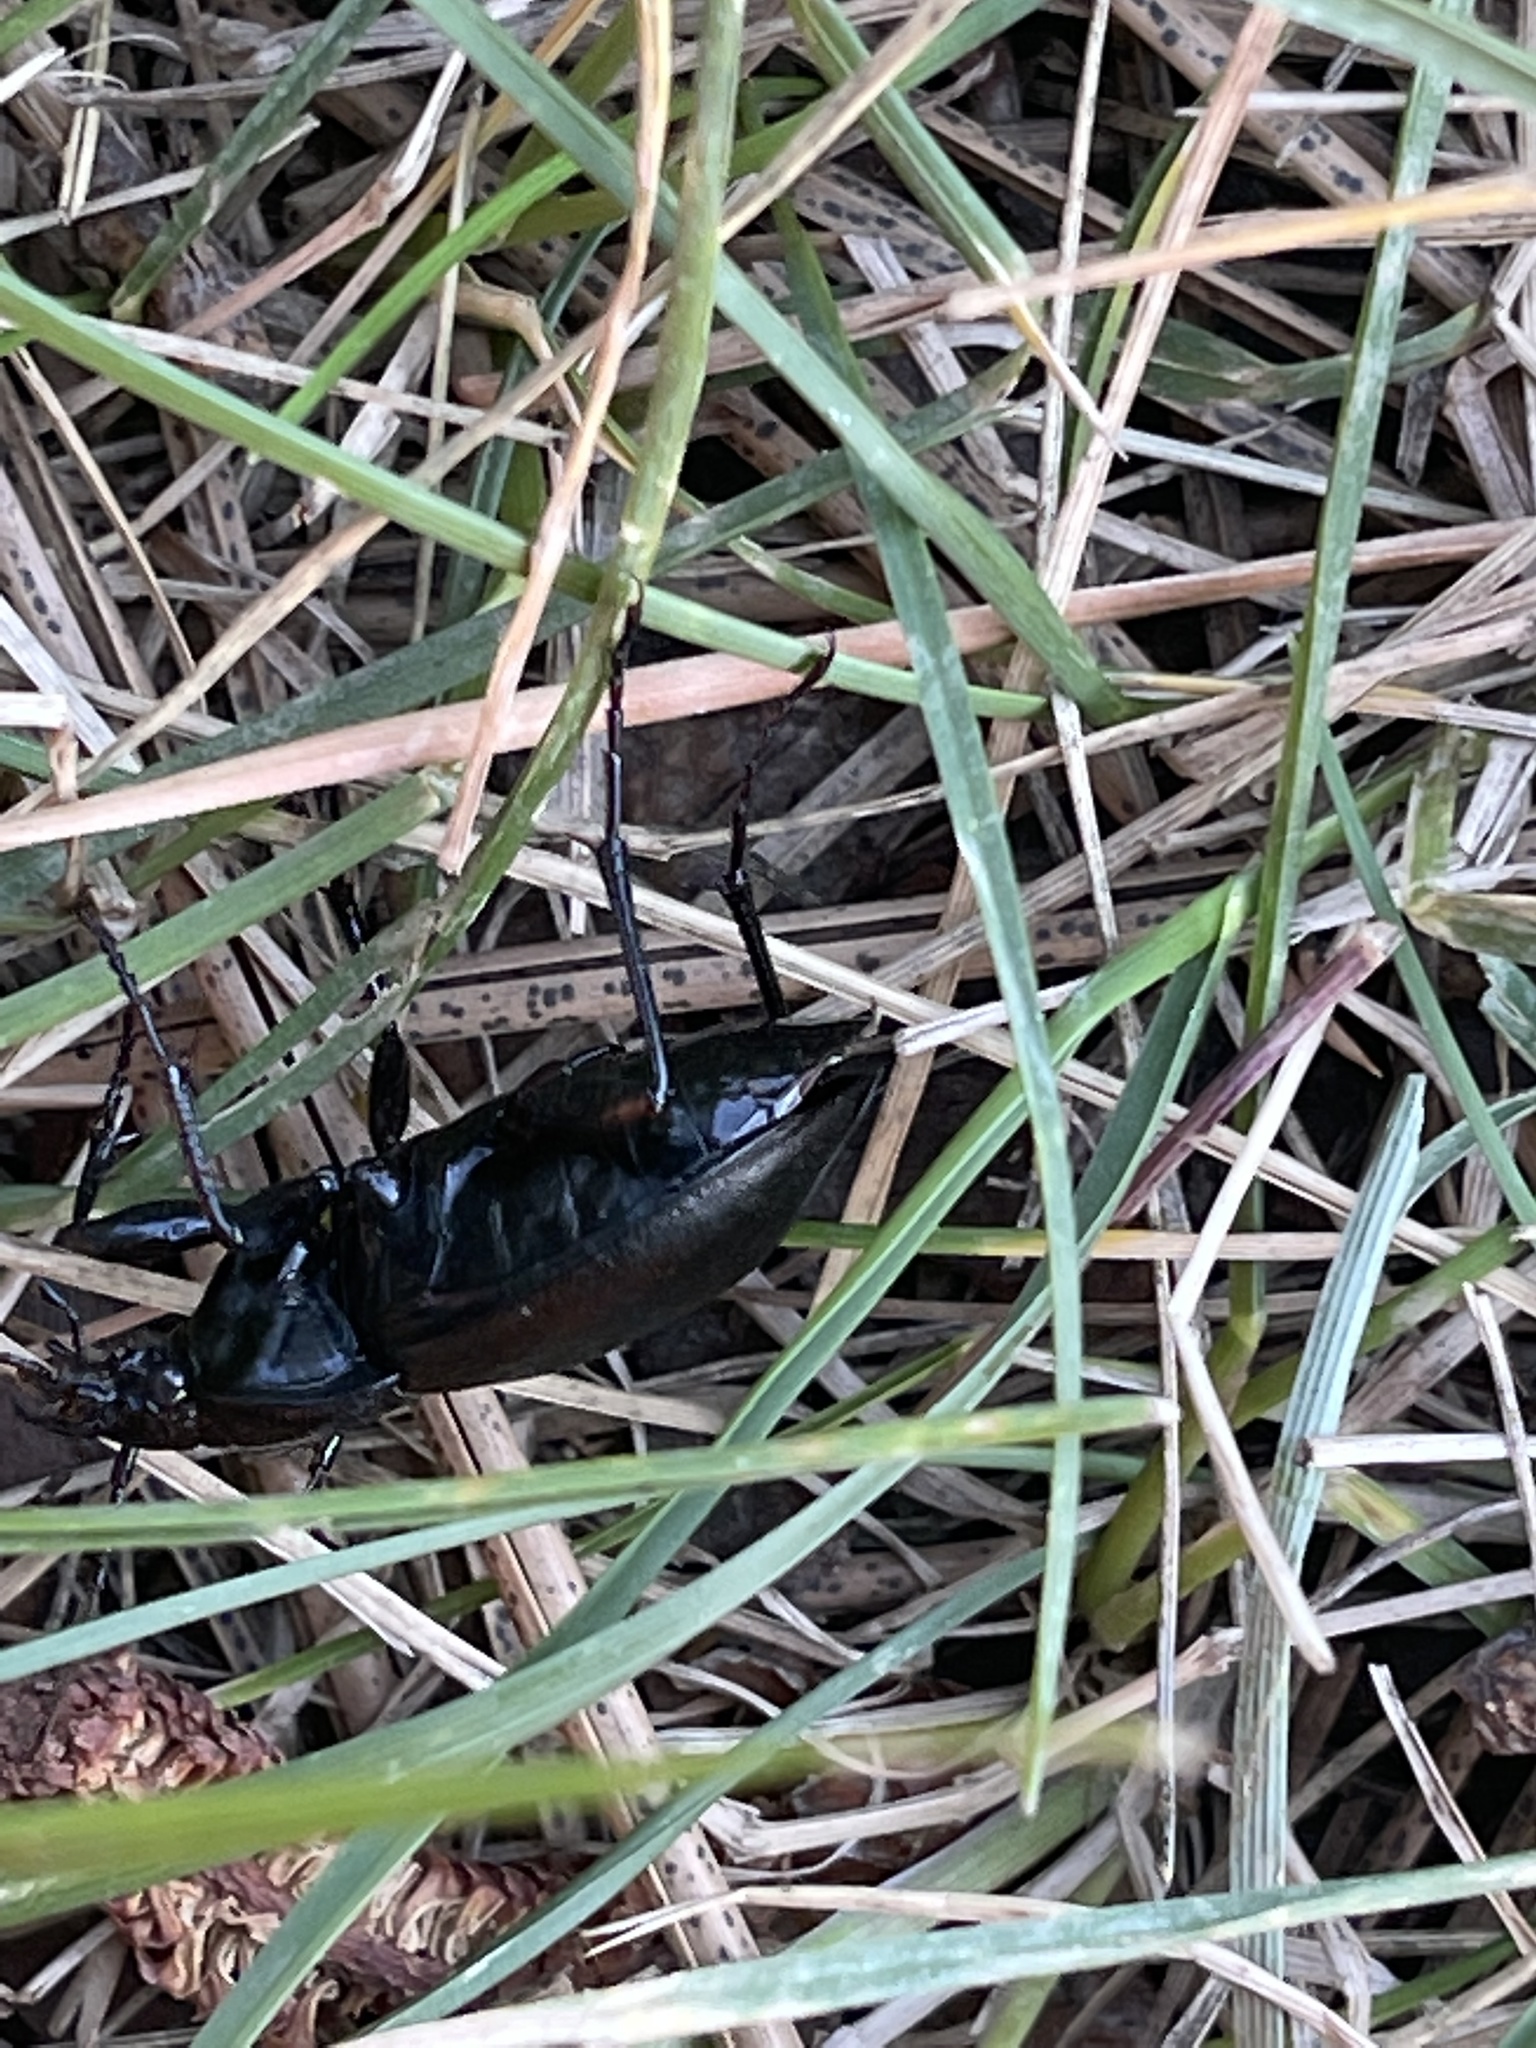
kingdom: Animalia
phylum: Arthropoda
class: Insecta
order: Coleoptera
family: Carabidae
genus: Carabus
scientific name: Carabus nemoralis
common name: European ground beetle
